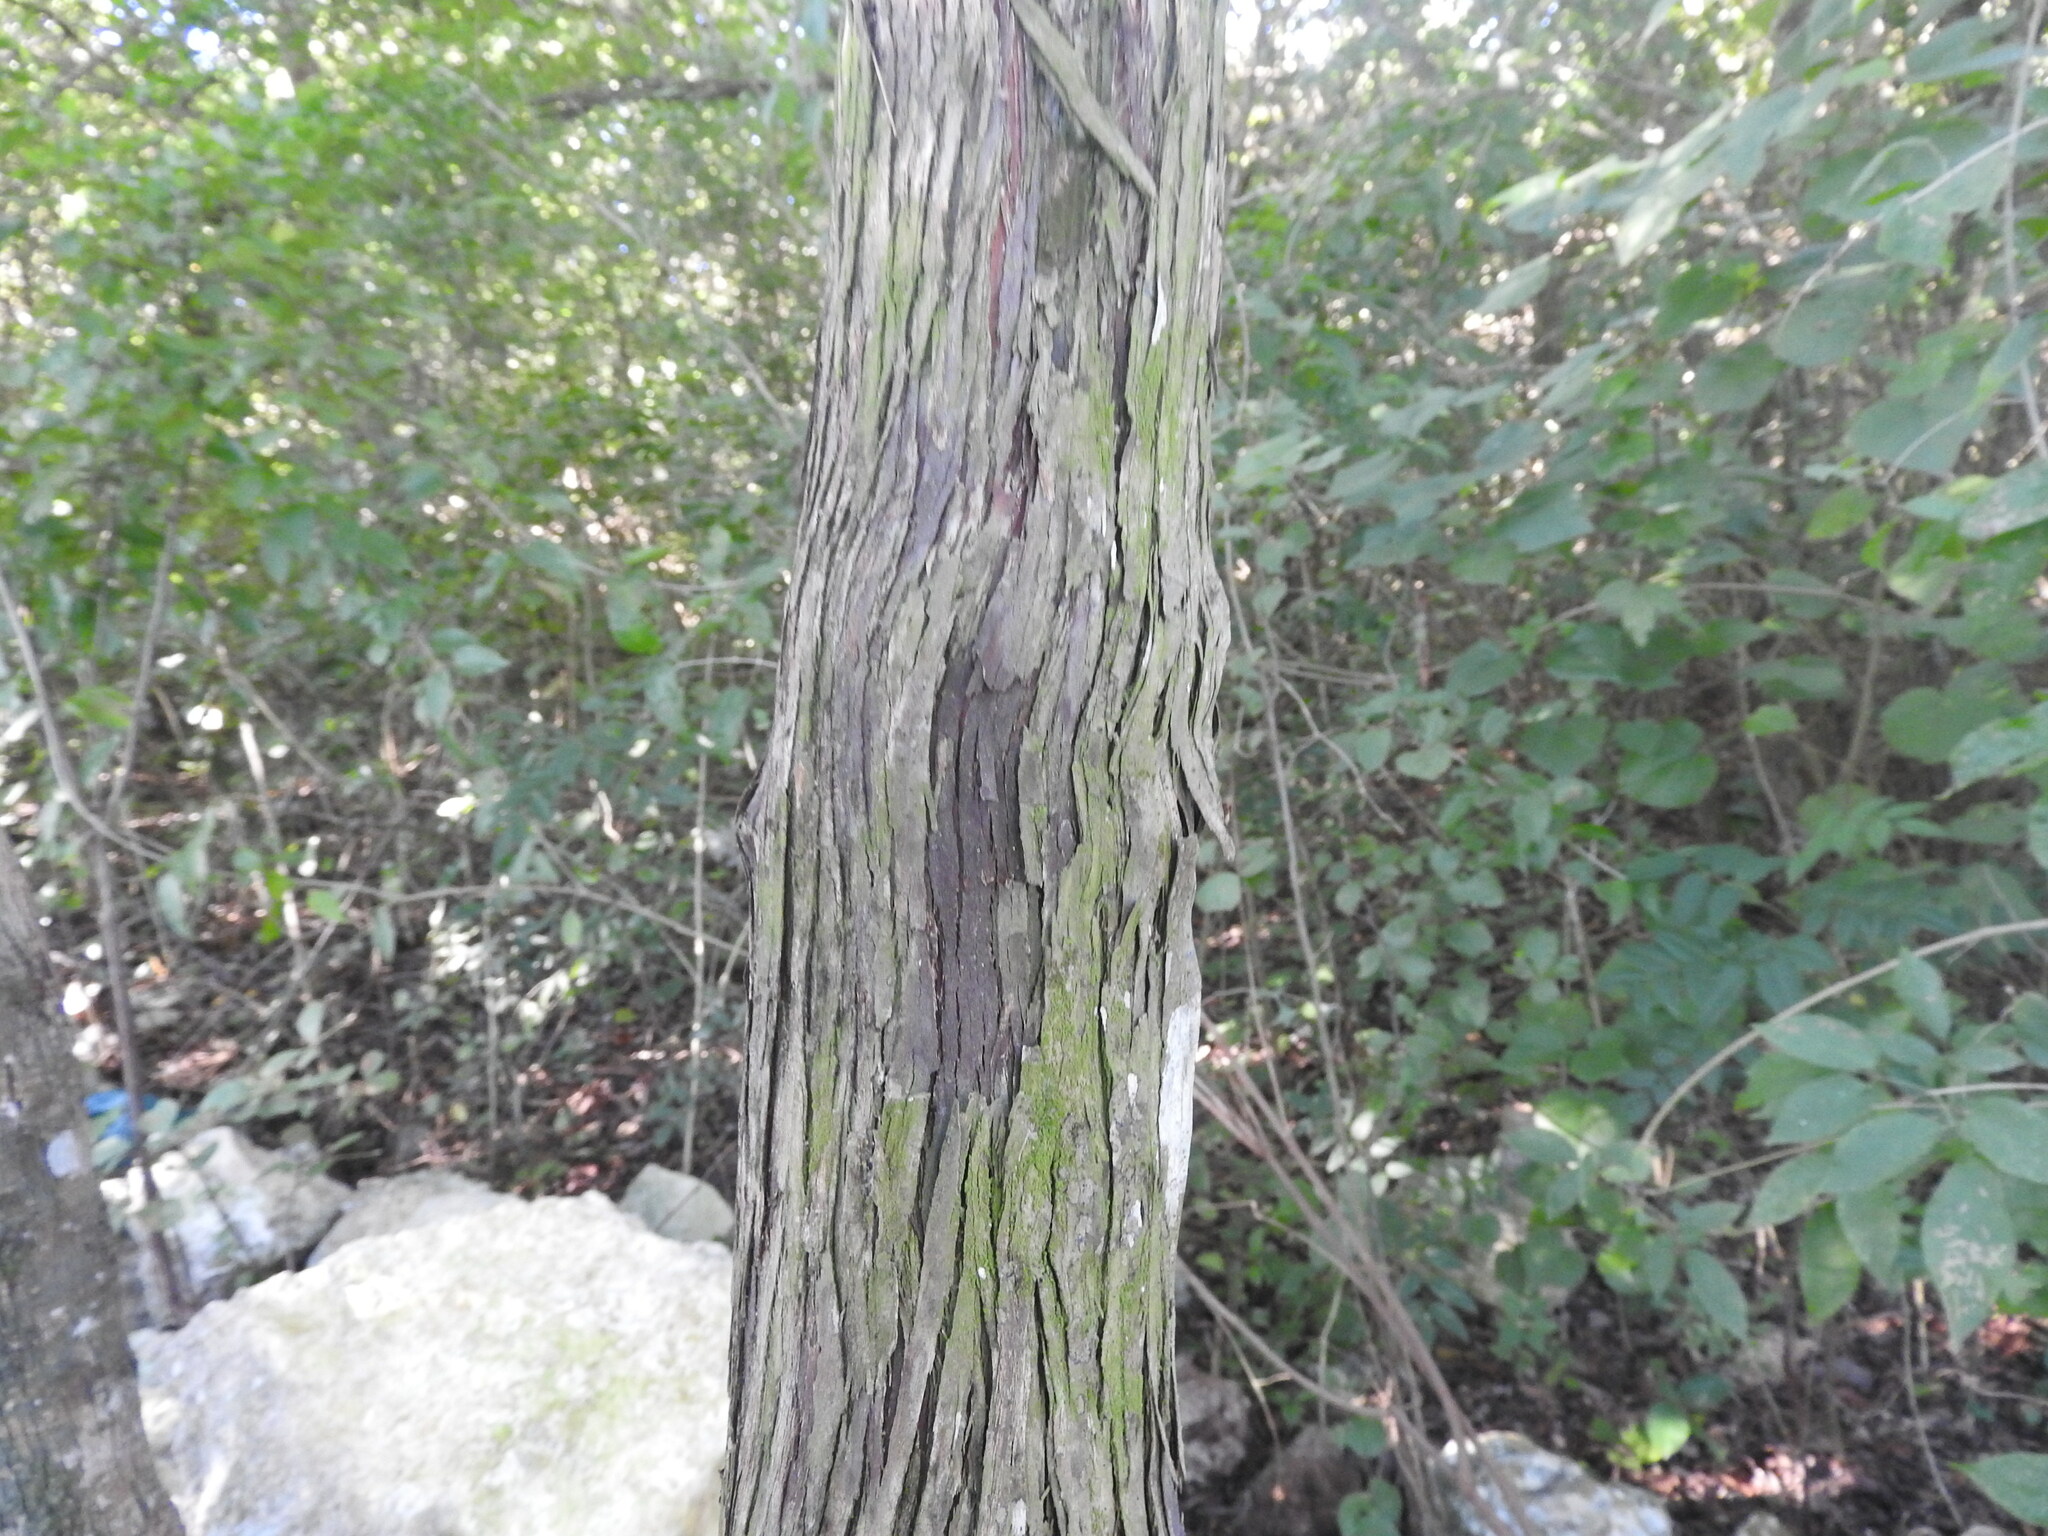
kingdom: Plantae
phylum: Tracheophyta
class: Magnoliopsida
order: Caryophyllales
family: Polygonaceae
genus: Gymnopodium
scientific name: Gymnopodium floribundum
